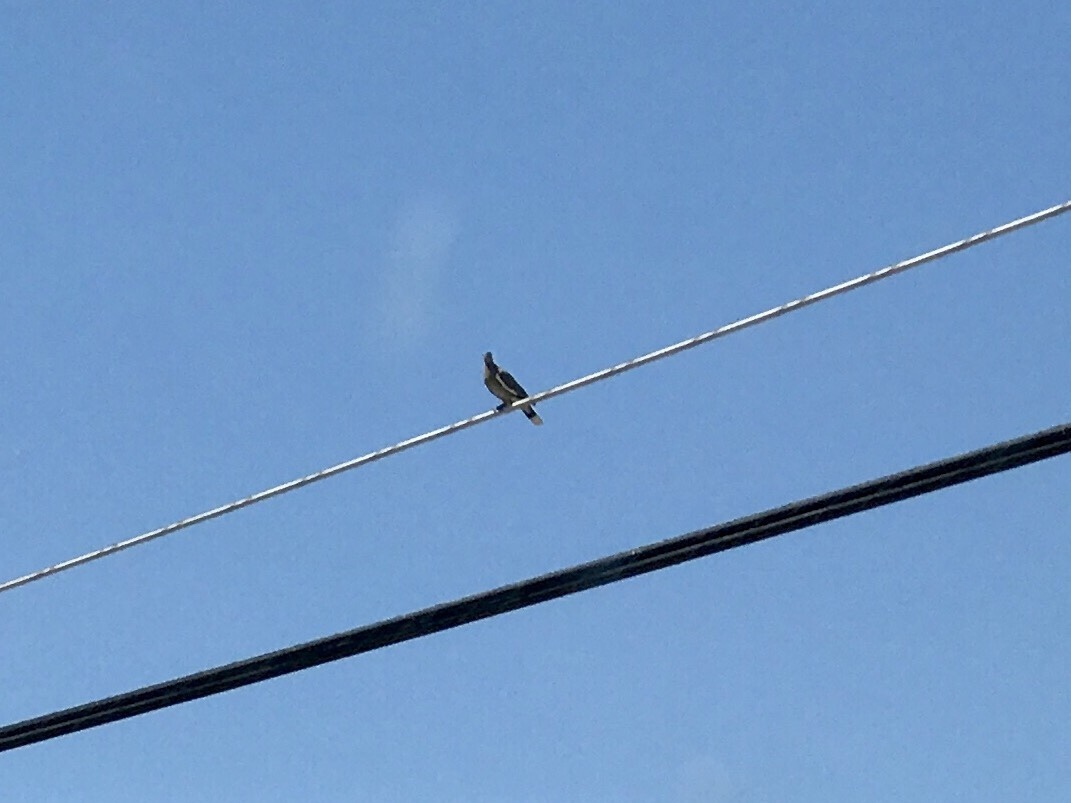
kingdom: Animalia
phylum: Chordata
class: Aves
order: Columbiformes
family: Columbidae
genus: Zenaida
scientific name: Zenaida asiatica
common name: White-winged dove
